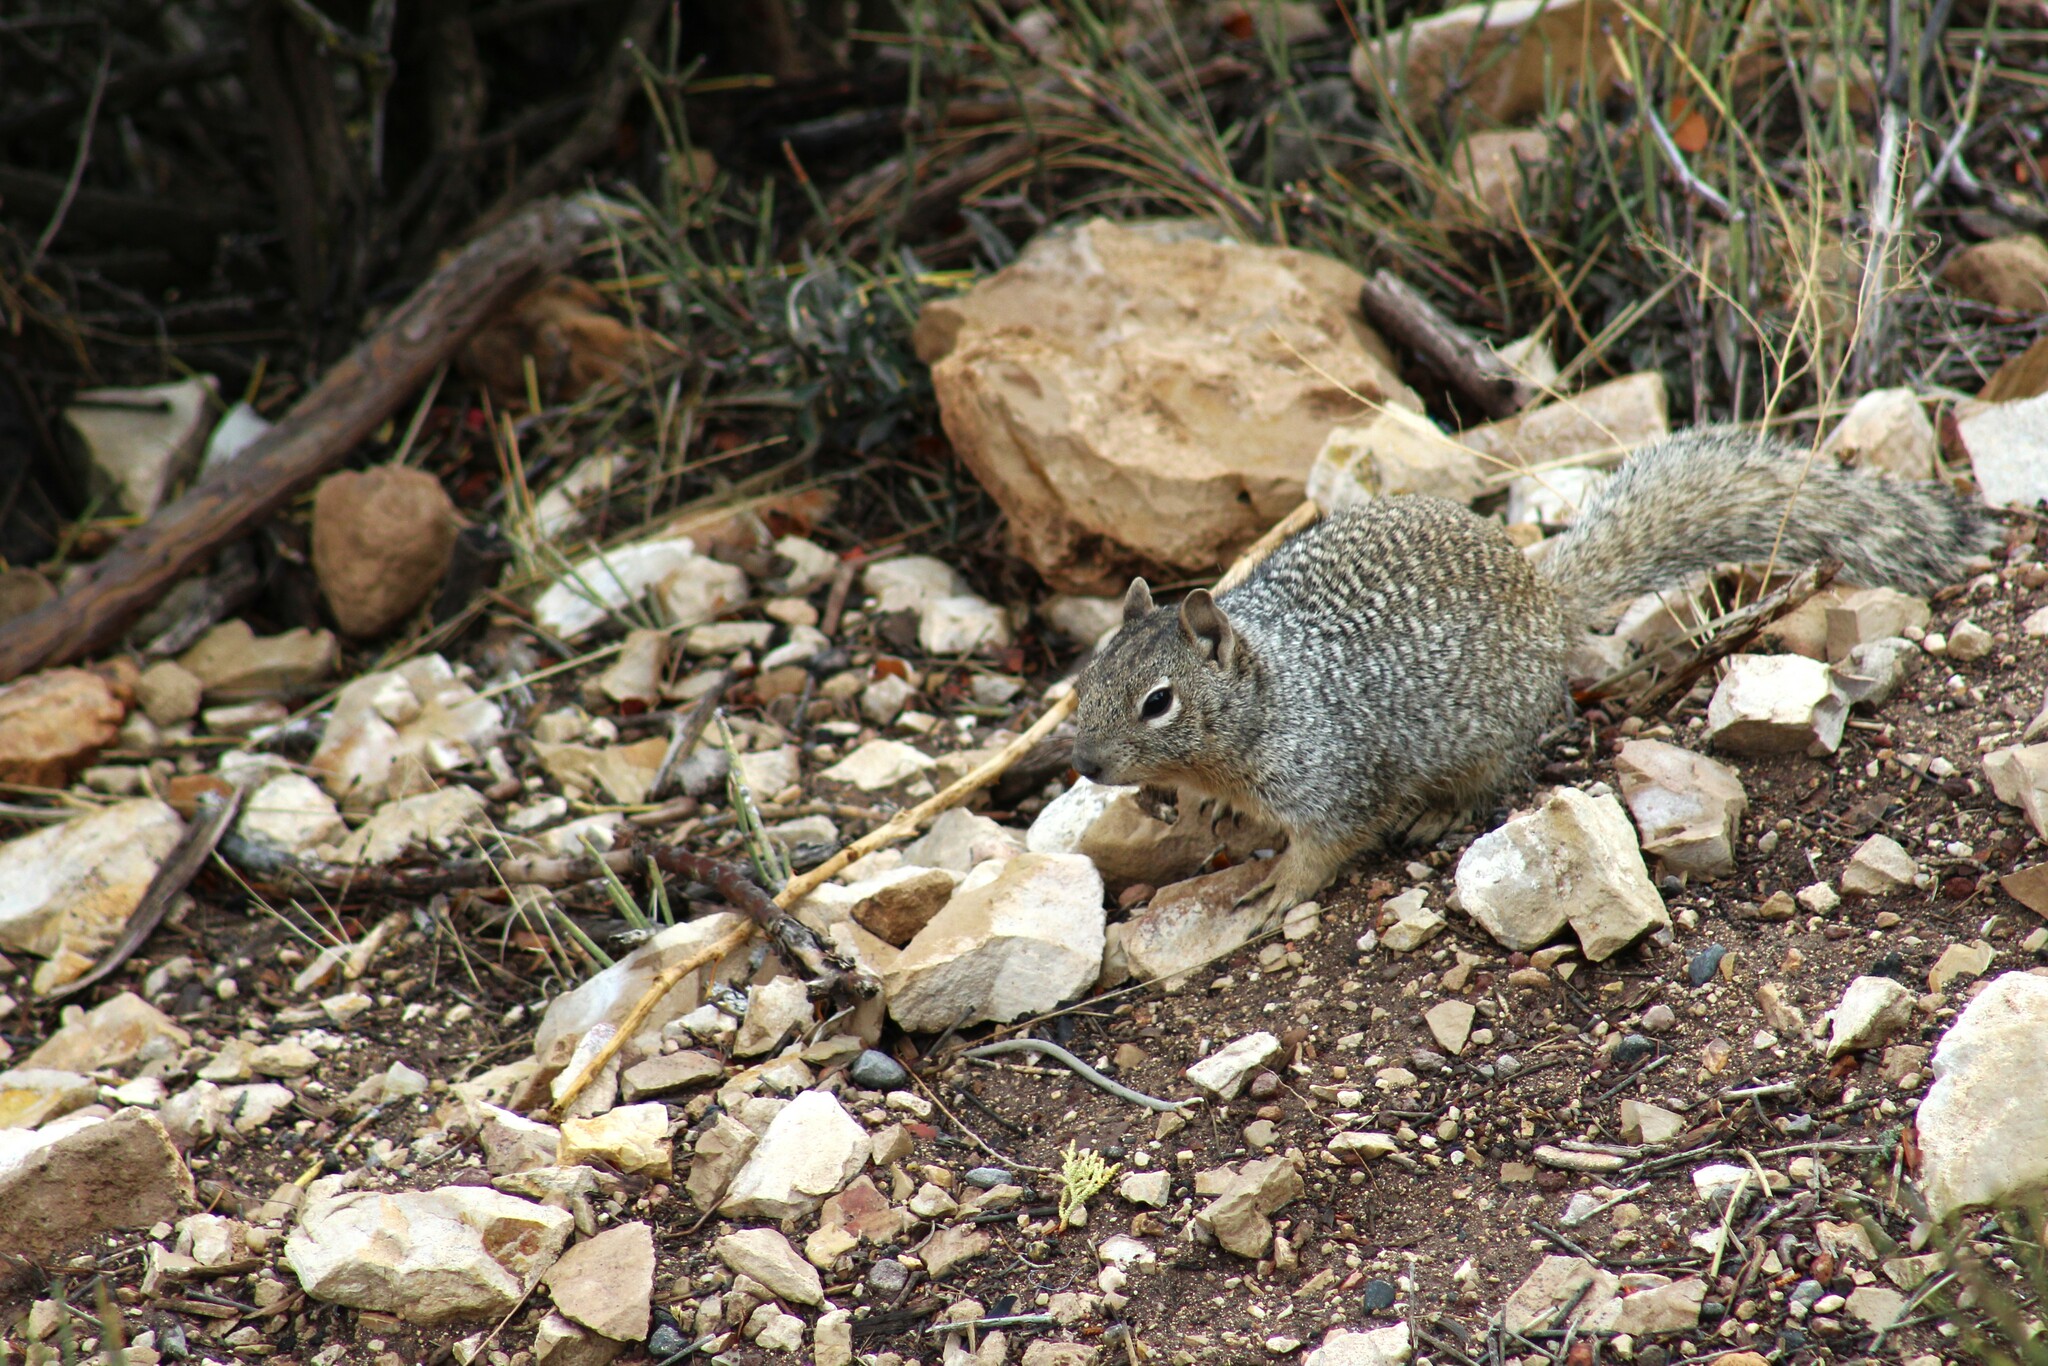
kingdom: Animalia
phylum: Chordata
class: Mammalia
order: Rodentia
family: Sciuridae
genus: Otospermophilus
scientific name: Otospermophilus variegatus
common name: Rock squirrel
